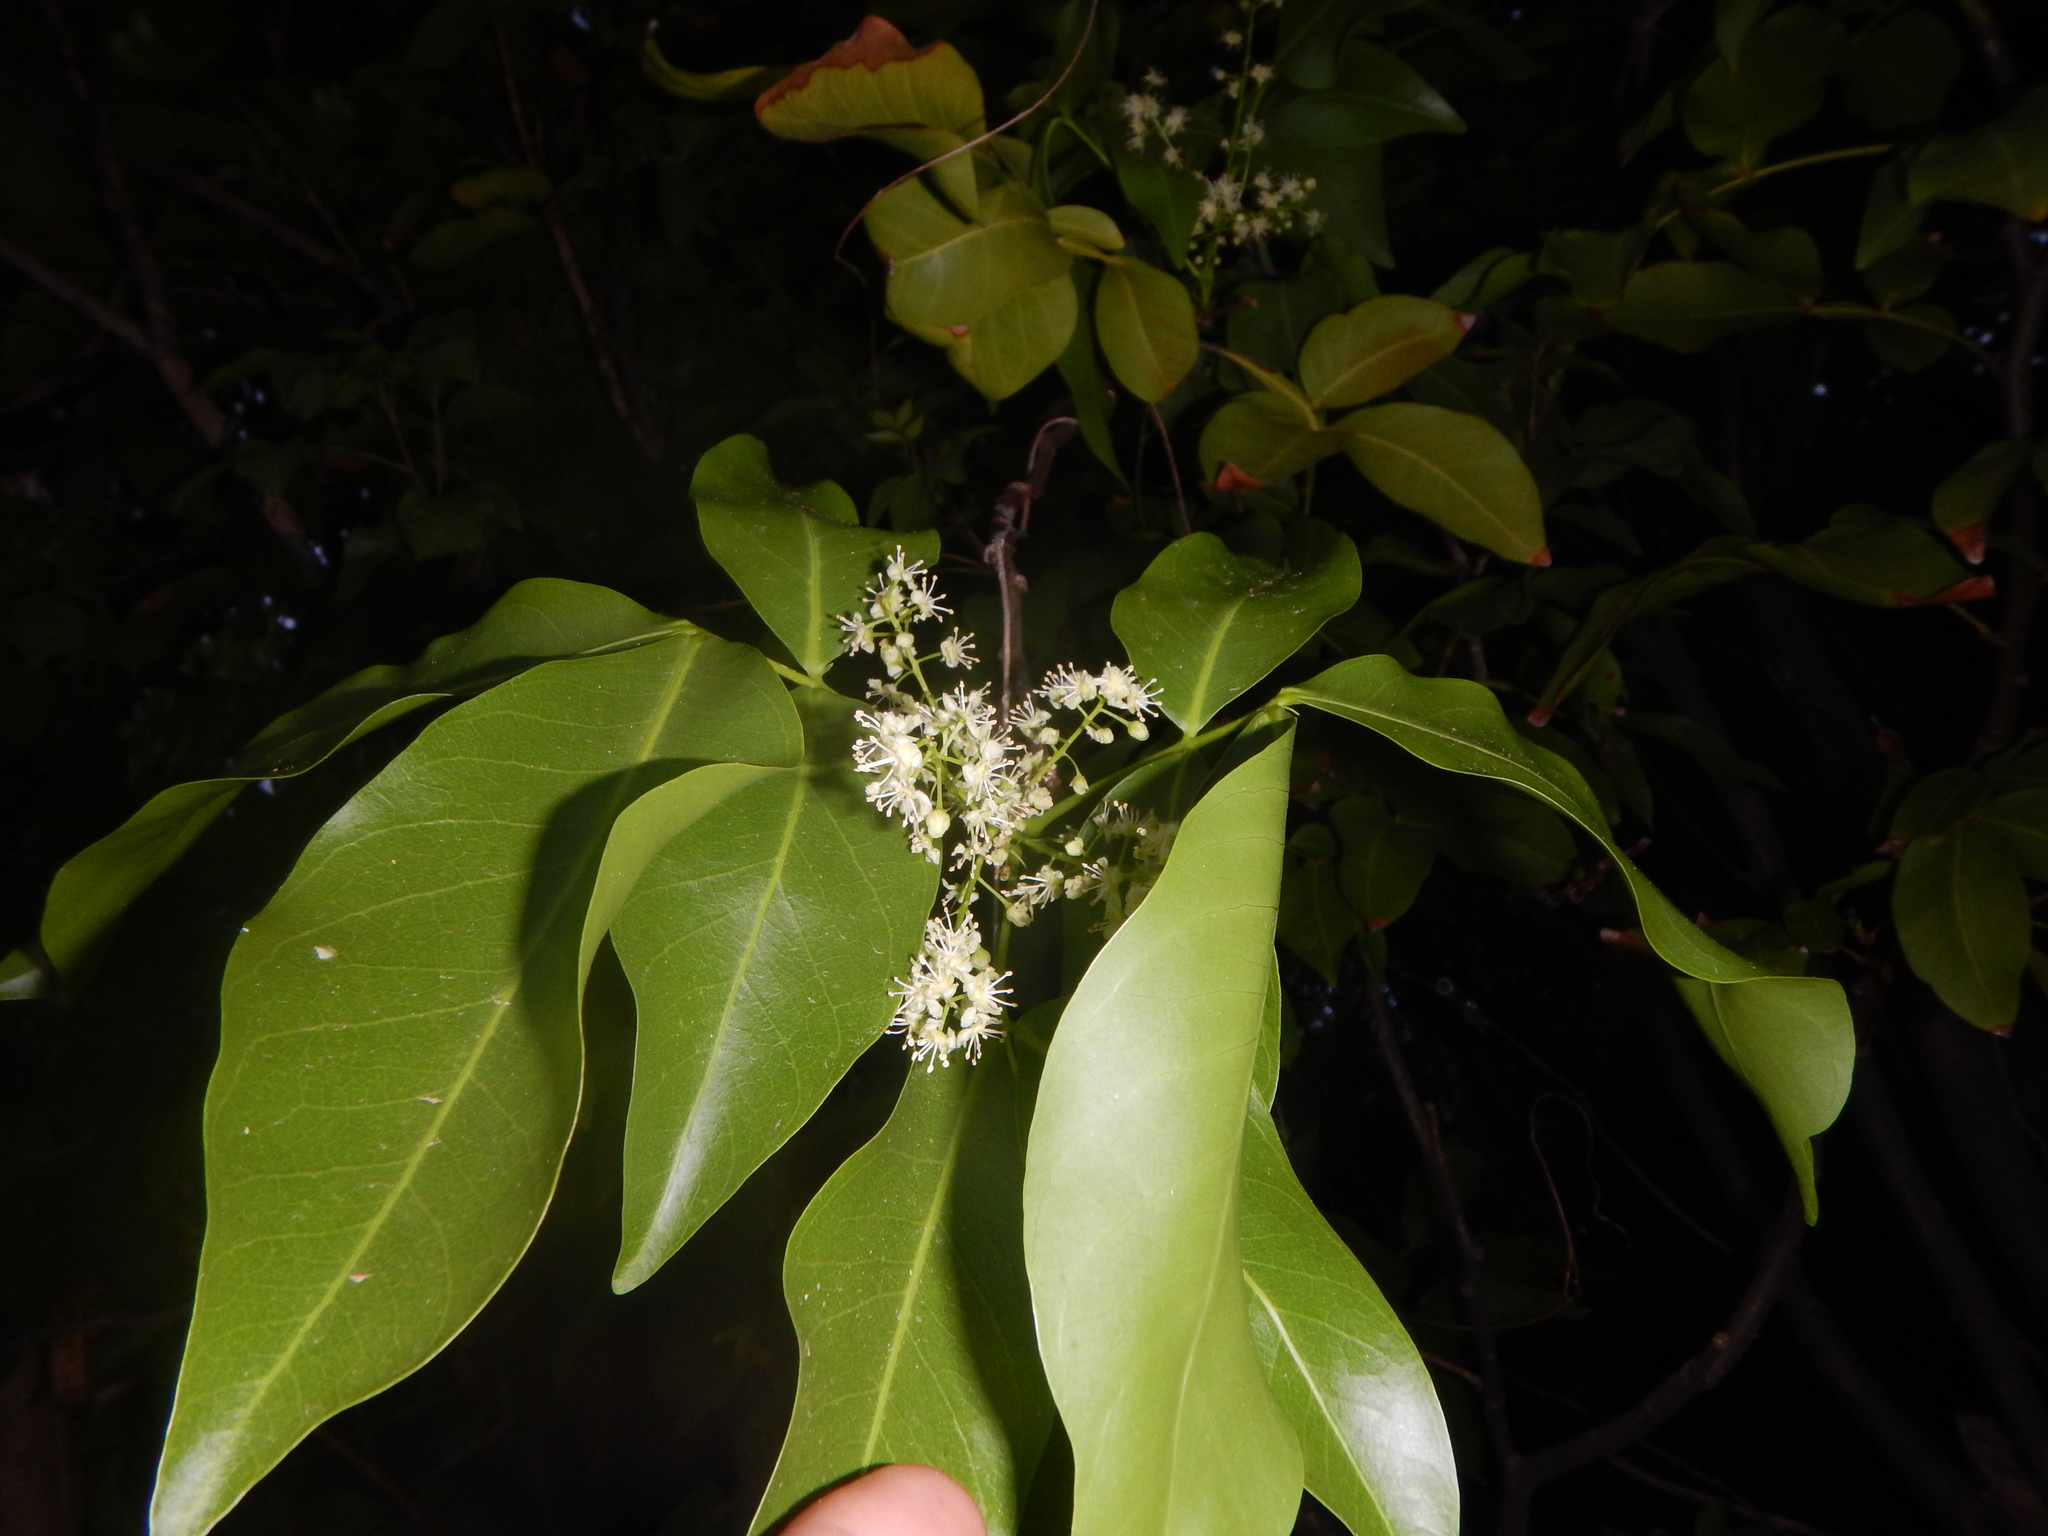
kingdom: Plantae
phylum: Tracheophyta
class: Magnoliopsida
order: Sapindales
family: Sapindaceae
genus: Melicoccus
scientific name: Melicoccus bijugatus
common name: Spanish lime
